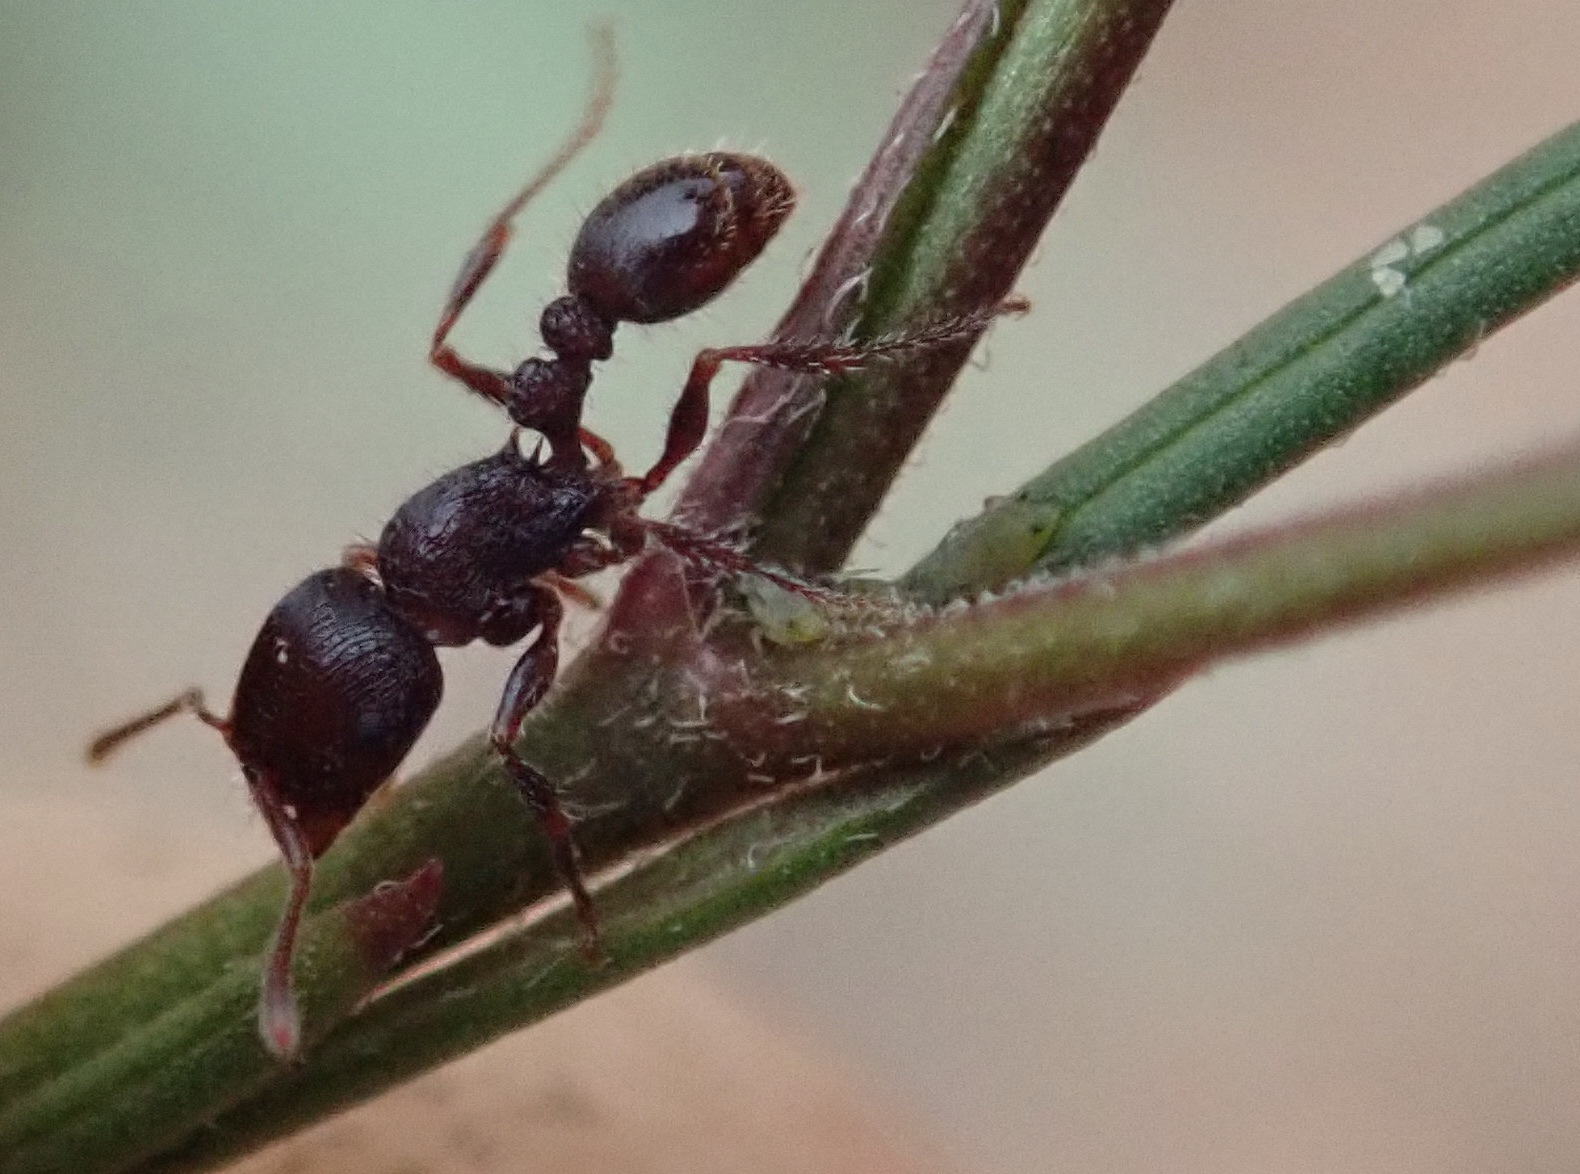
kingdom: Animalia
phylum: Arthropoda
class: Insecta
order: Hymenoptera
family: Formicidae
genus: Tetramorium
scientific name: Tetramorium dichroum
